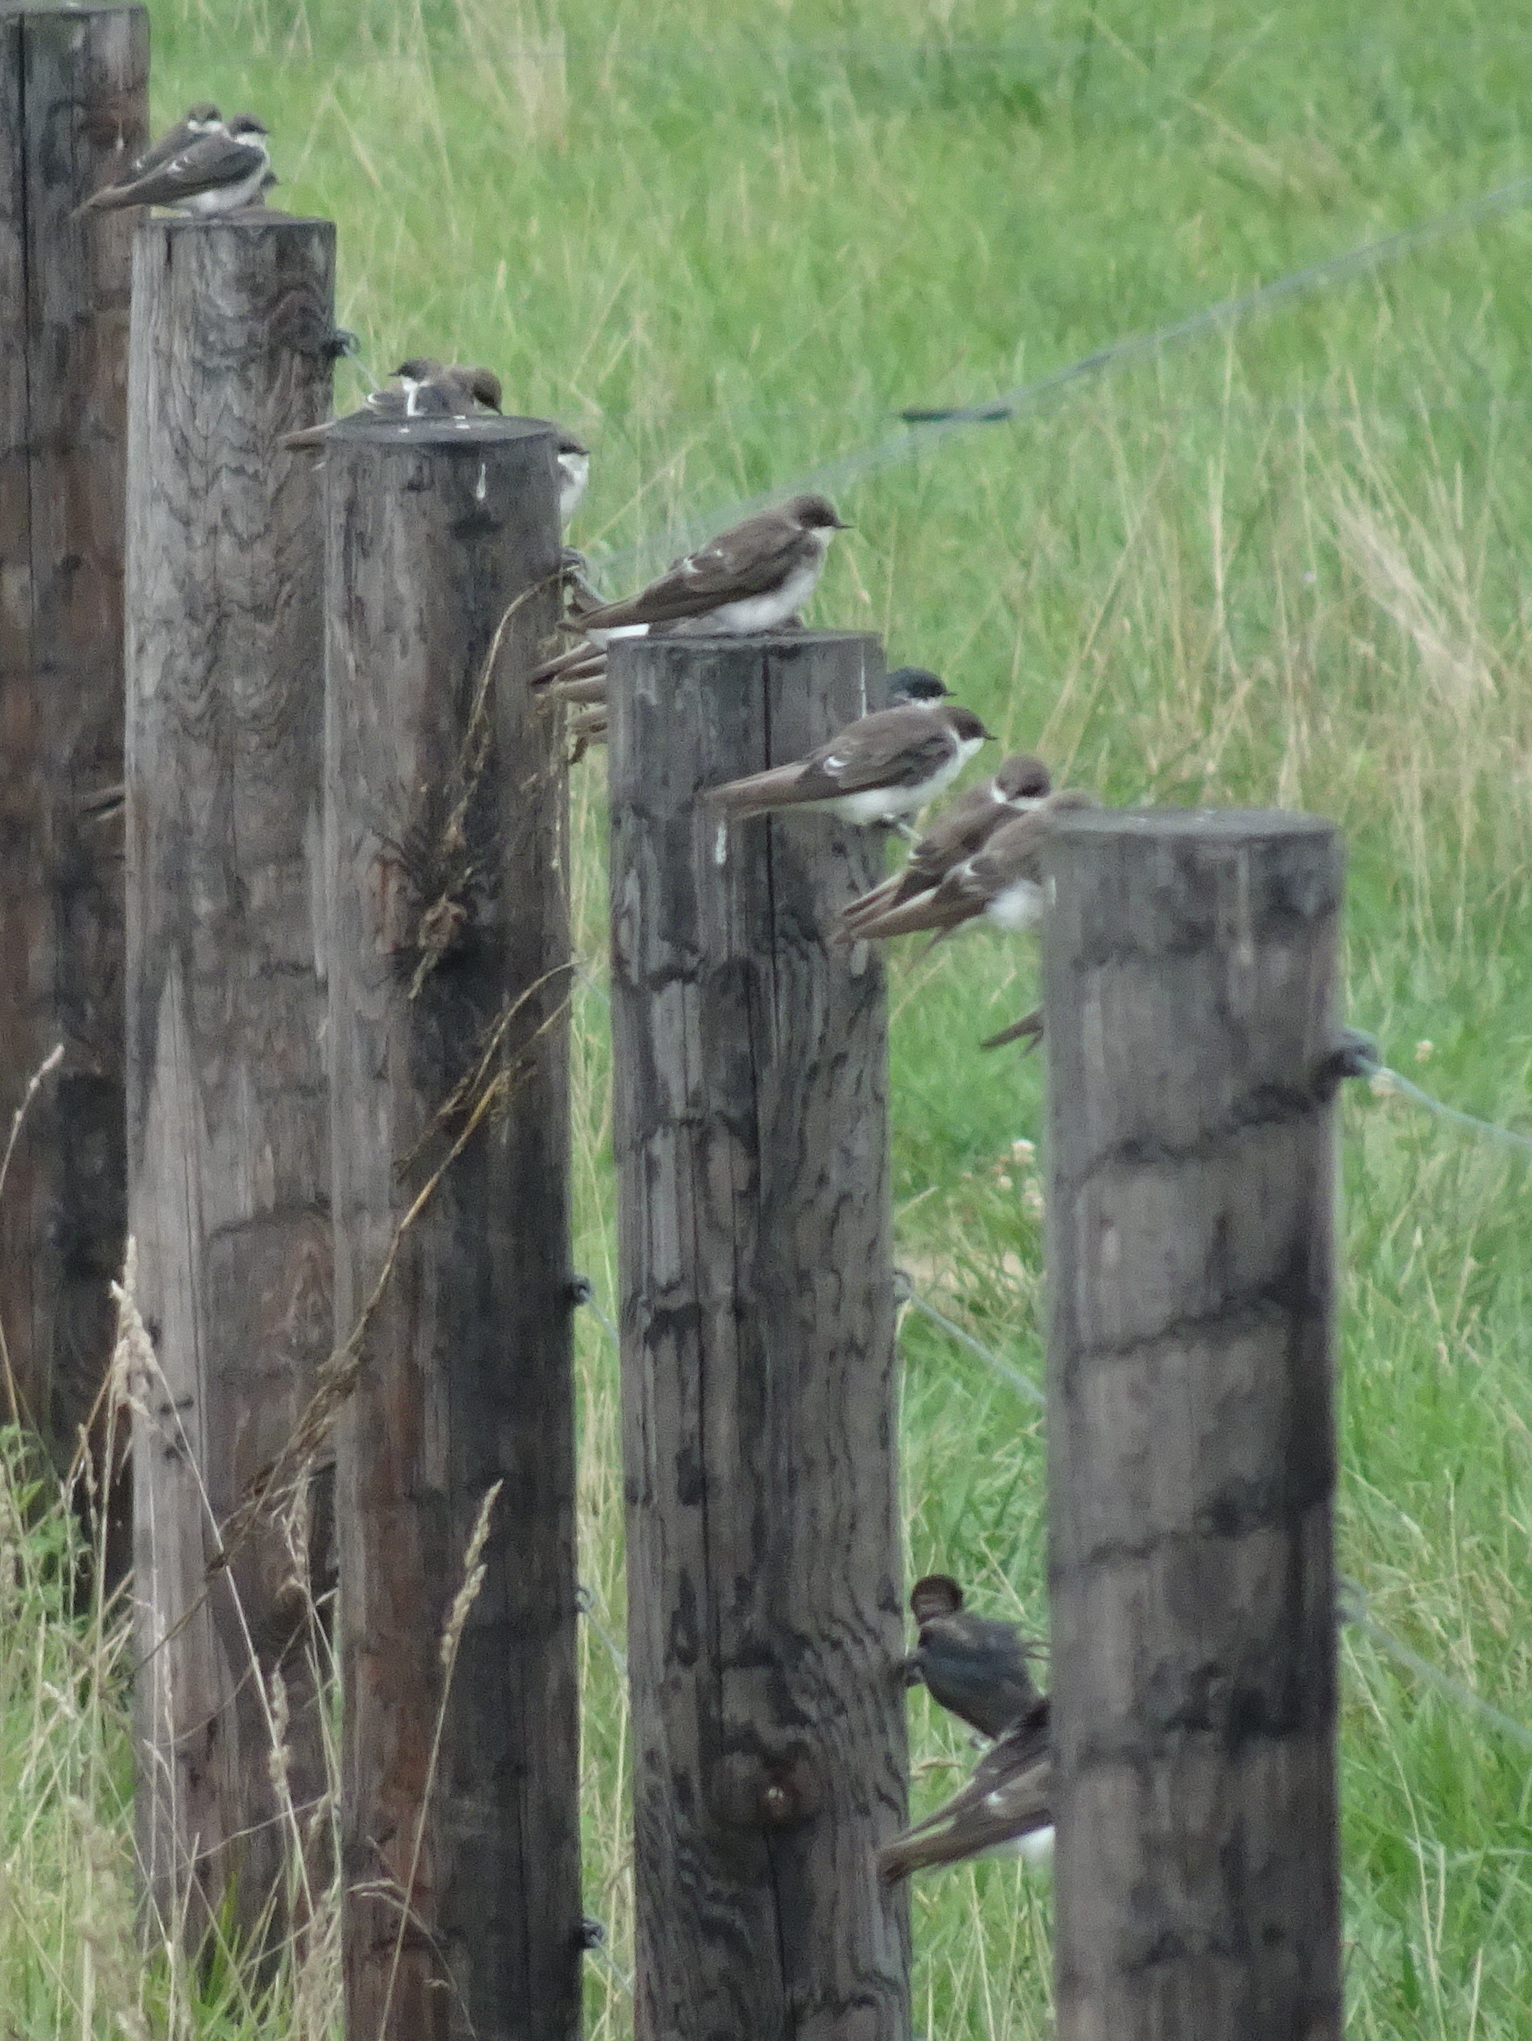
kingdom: Animalia
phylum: Chordata
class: Aves
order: Passeriformes
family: Hirundinidae
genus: Tachycineta
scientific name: Tachycineta bicolor
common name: Tree swallow
